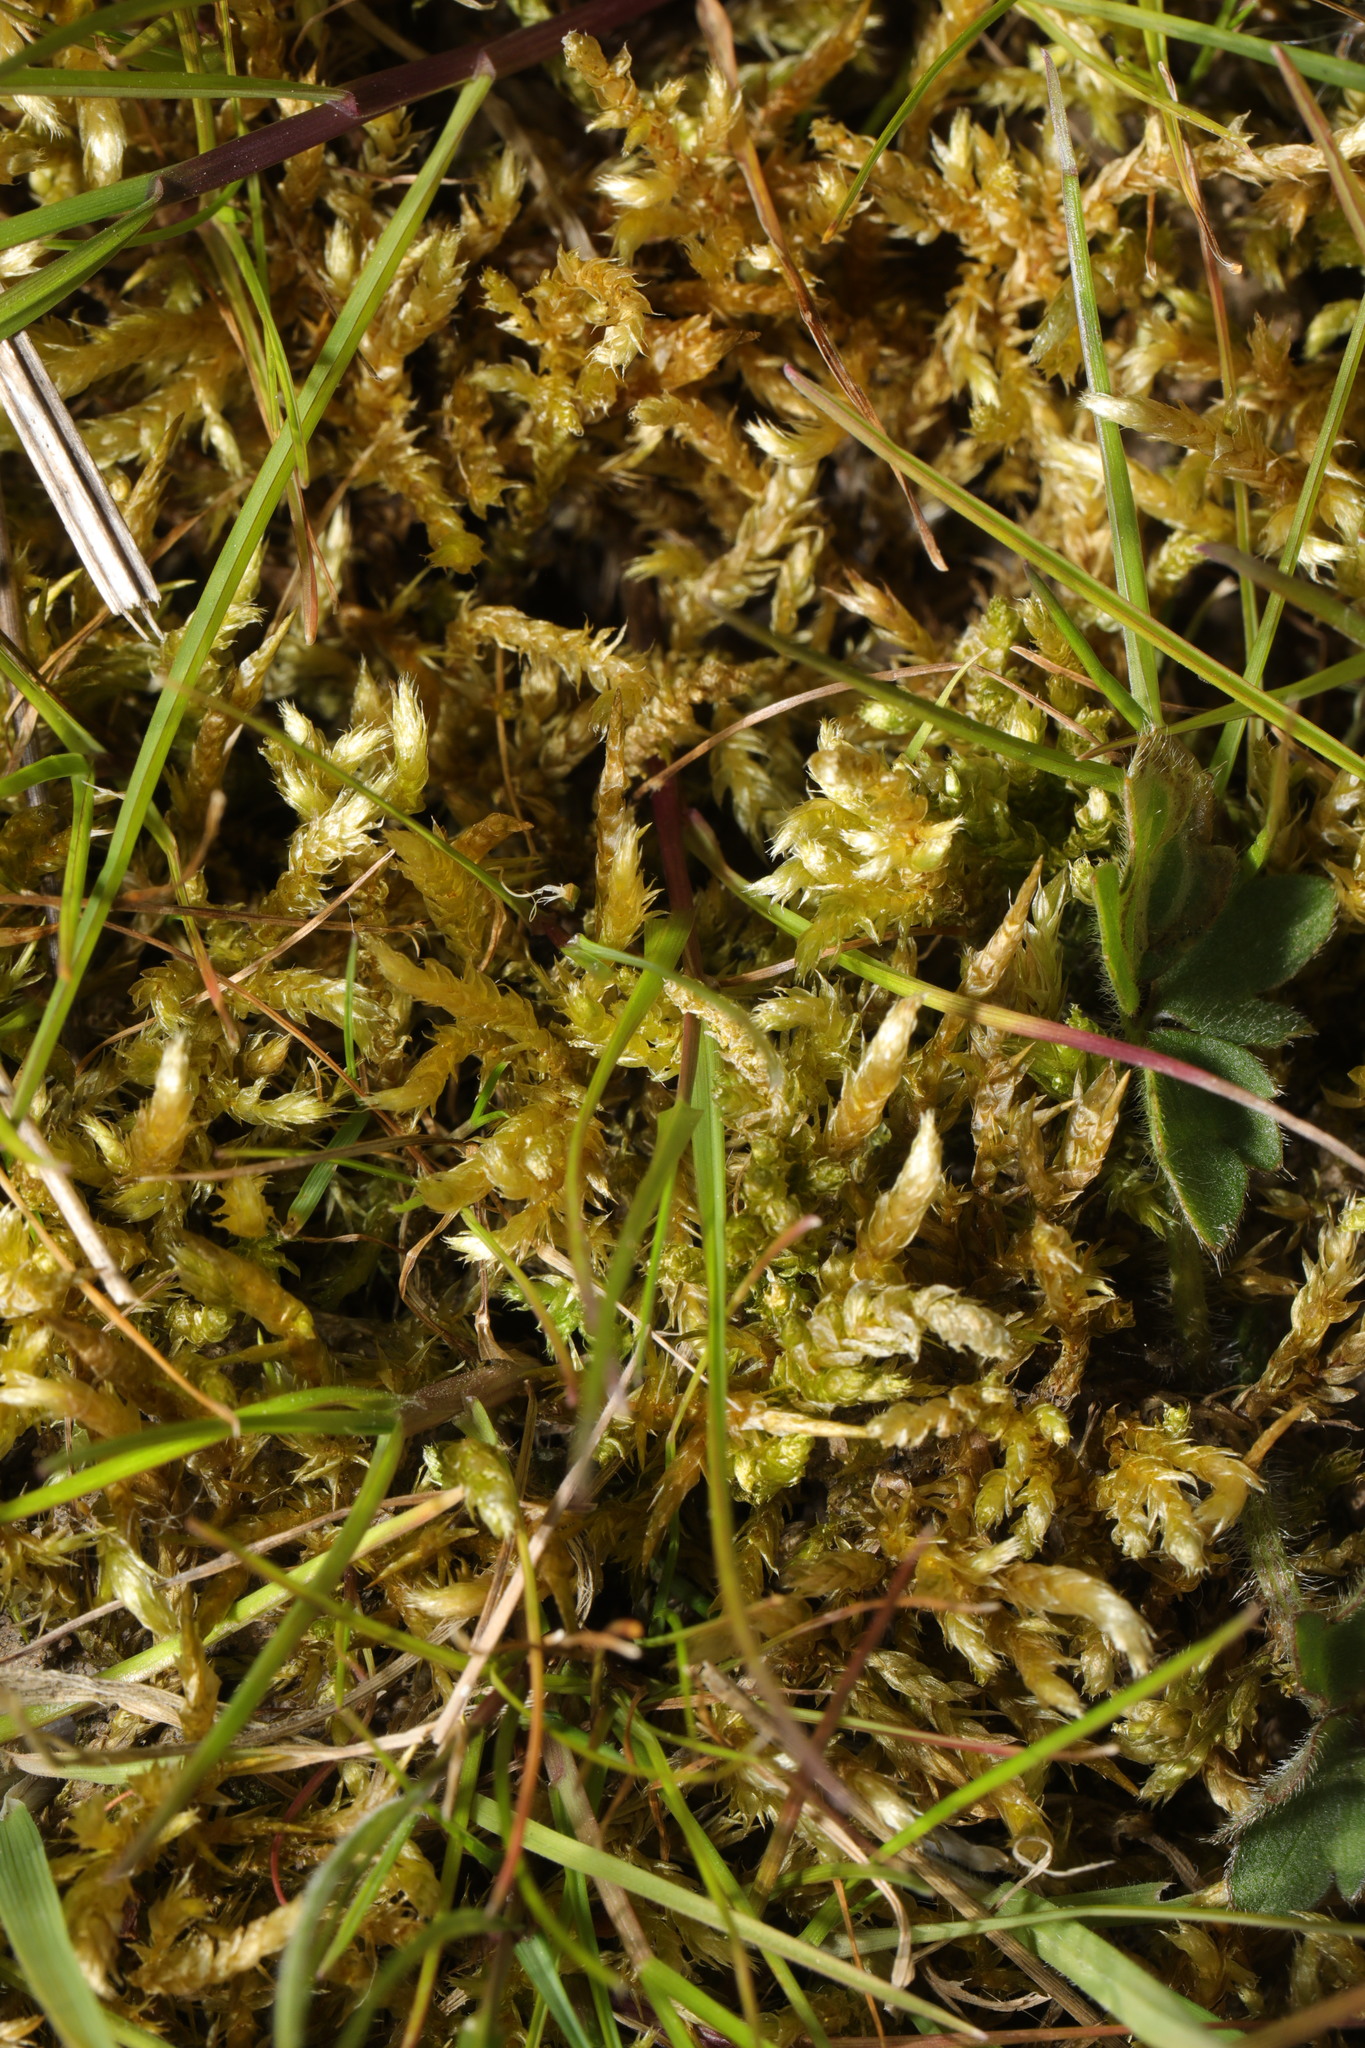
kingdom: Plantae
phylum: Bryophyta
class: Bryopsida
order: Hypnales
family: Pylaisiaceae
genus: Calliergonella
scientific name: Calliergonella cuspidata
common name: Common large wetland moss
